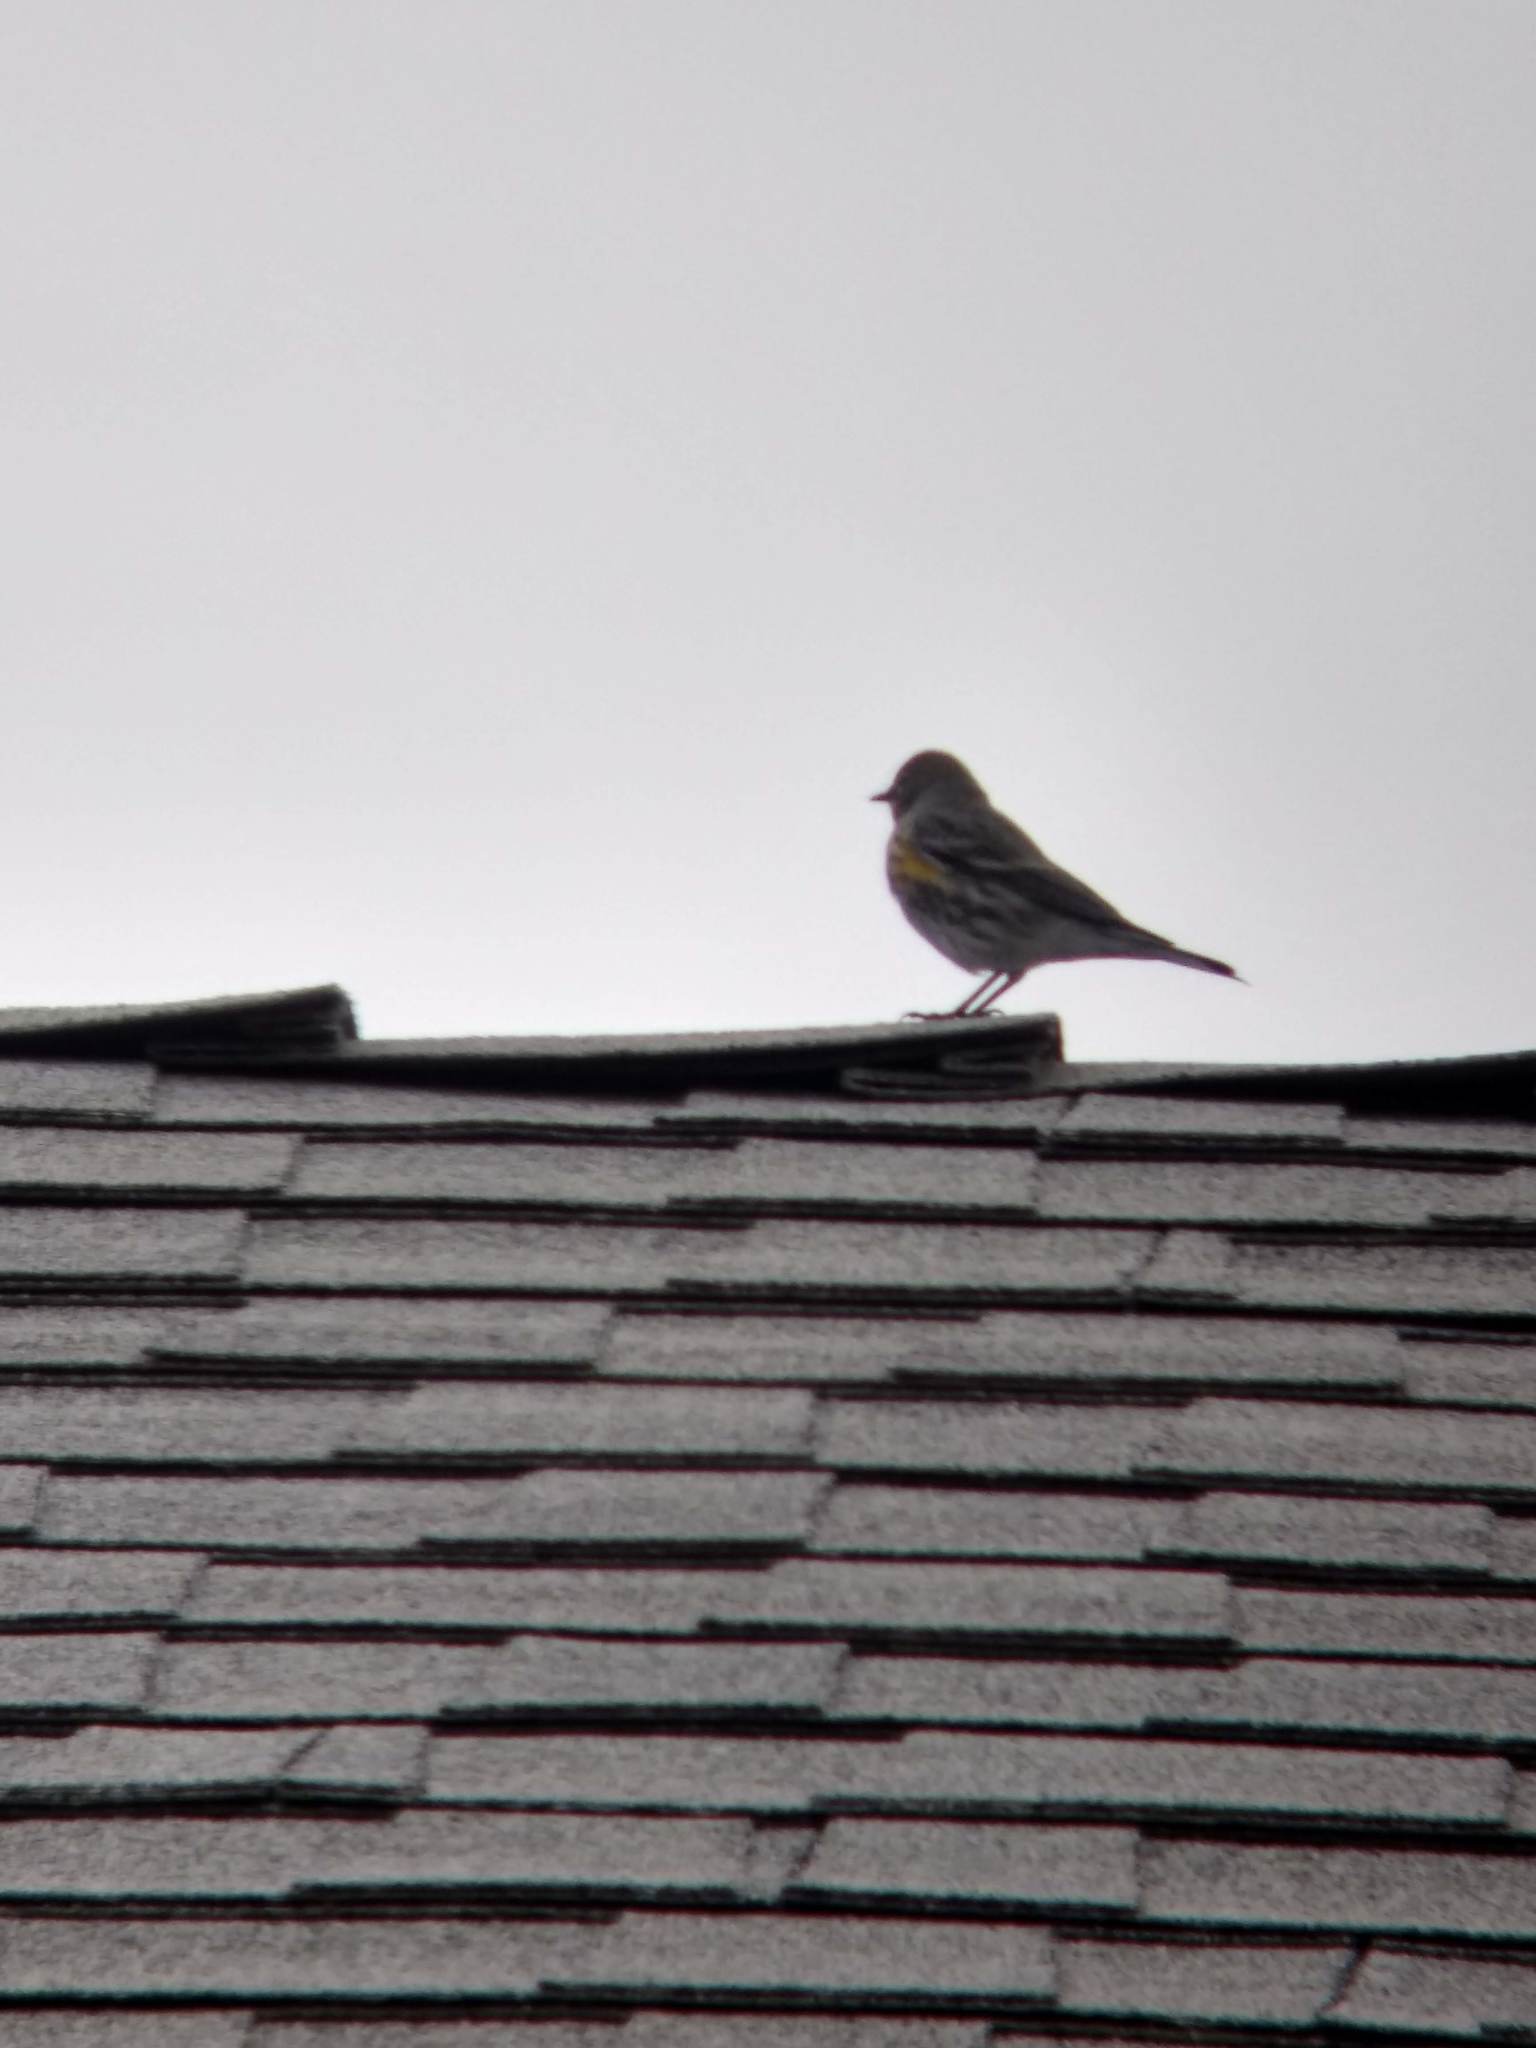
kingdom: Animalia
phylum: Chordata
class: Aves
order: Passeriformes
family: Parulidae
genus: Setophaga
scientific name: Setophaga coronata
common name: Myrtle warbler
